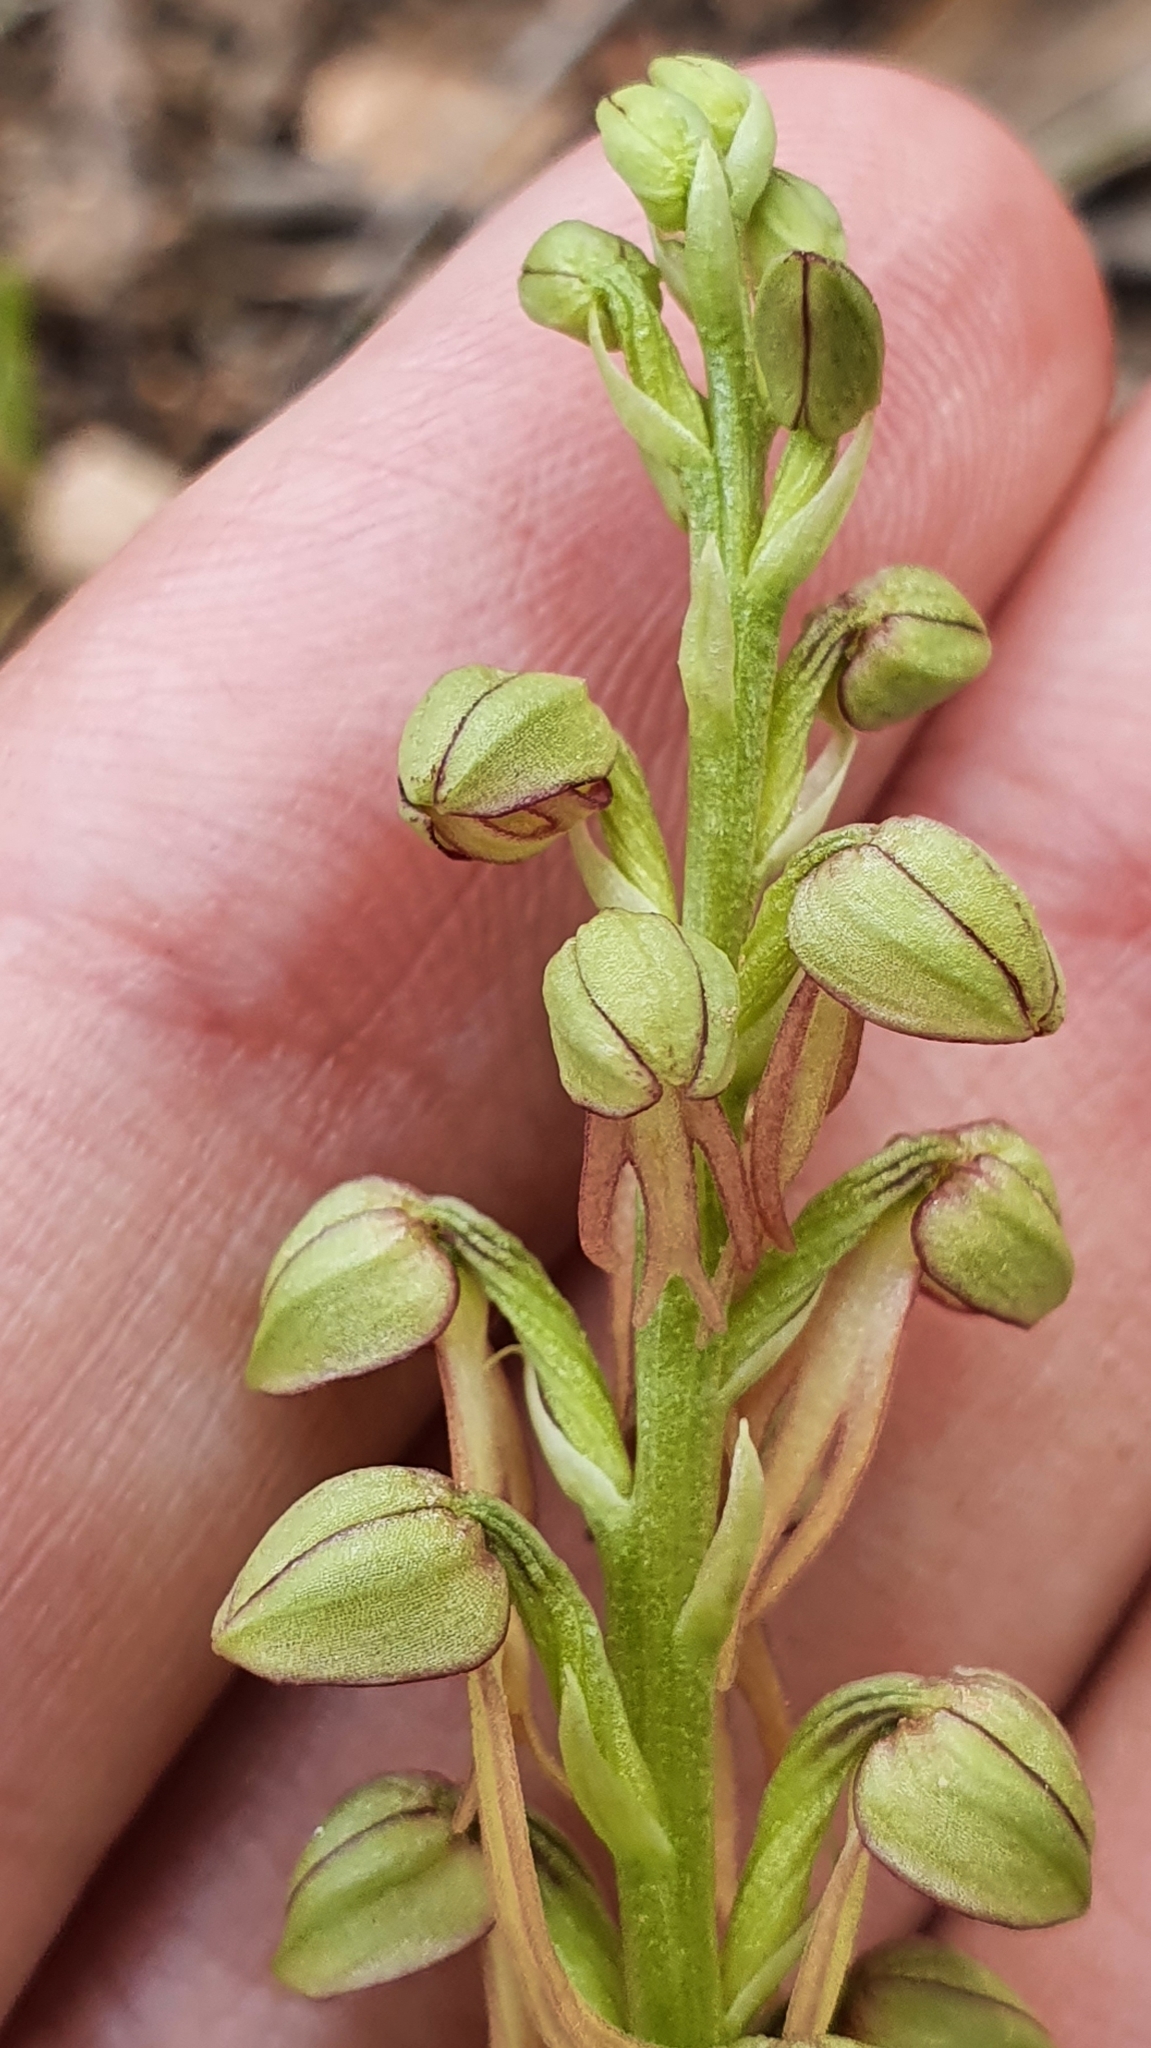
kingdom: Plantae
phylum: Tracheophyta
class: Liliopsida
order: Asparagales
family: Orchidaceae
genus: Orchis
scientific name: Orchis anthropophora
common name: Man orchid
